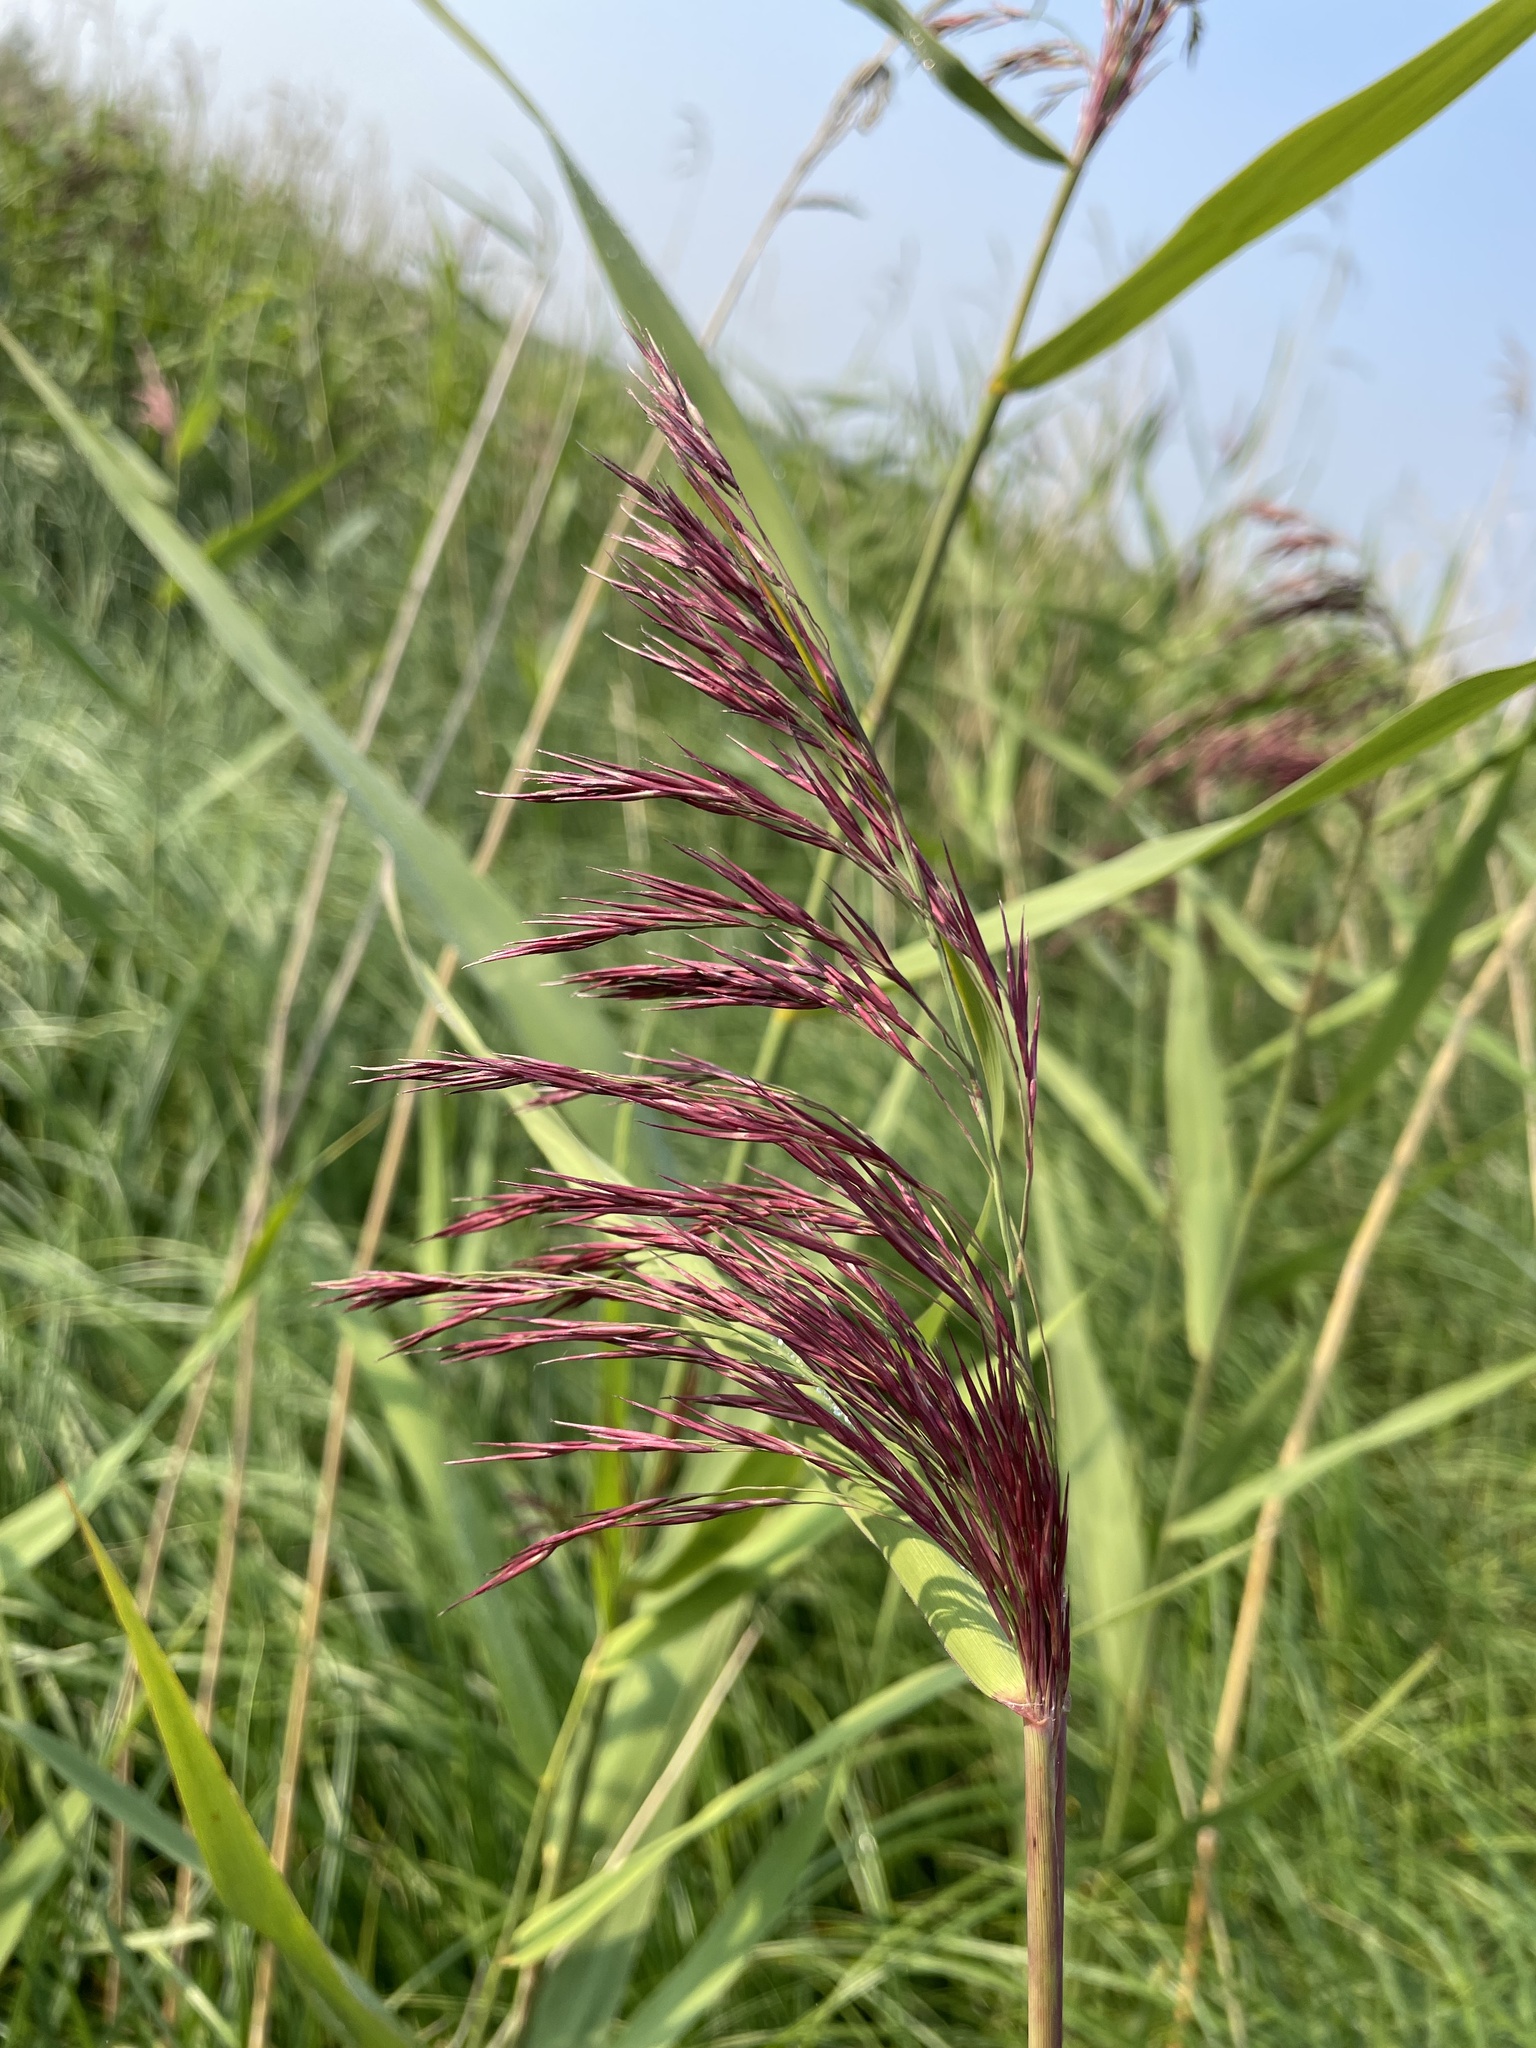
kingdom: Plantae
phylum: Tracheophyta
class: Liliopsida
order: Poales
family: Poaceae
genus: Phragmites
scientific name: Phragmites australis
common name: Common reed
